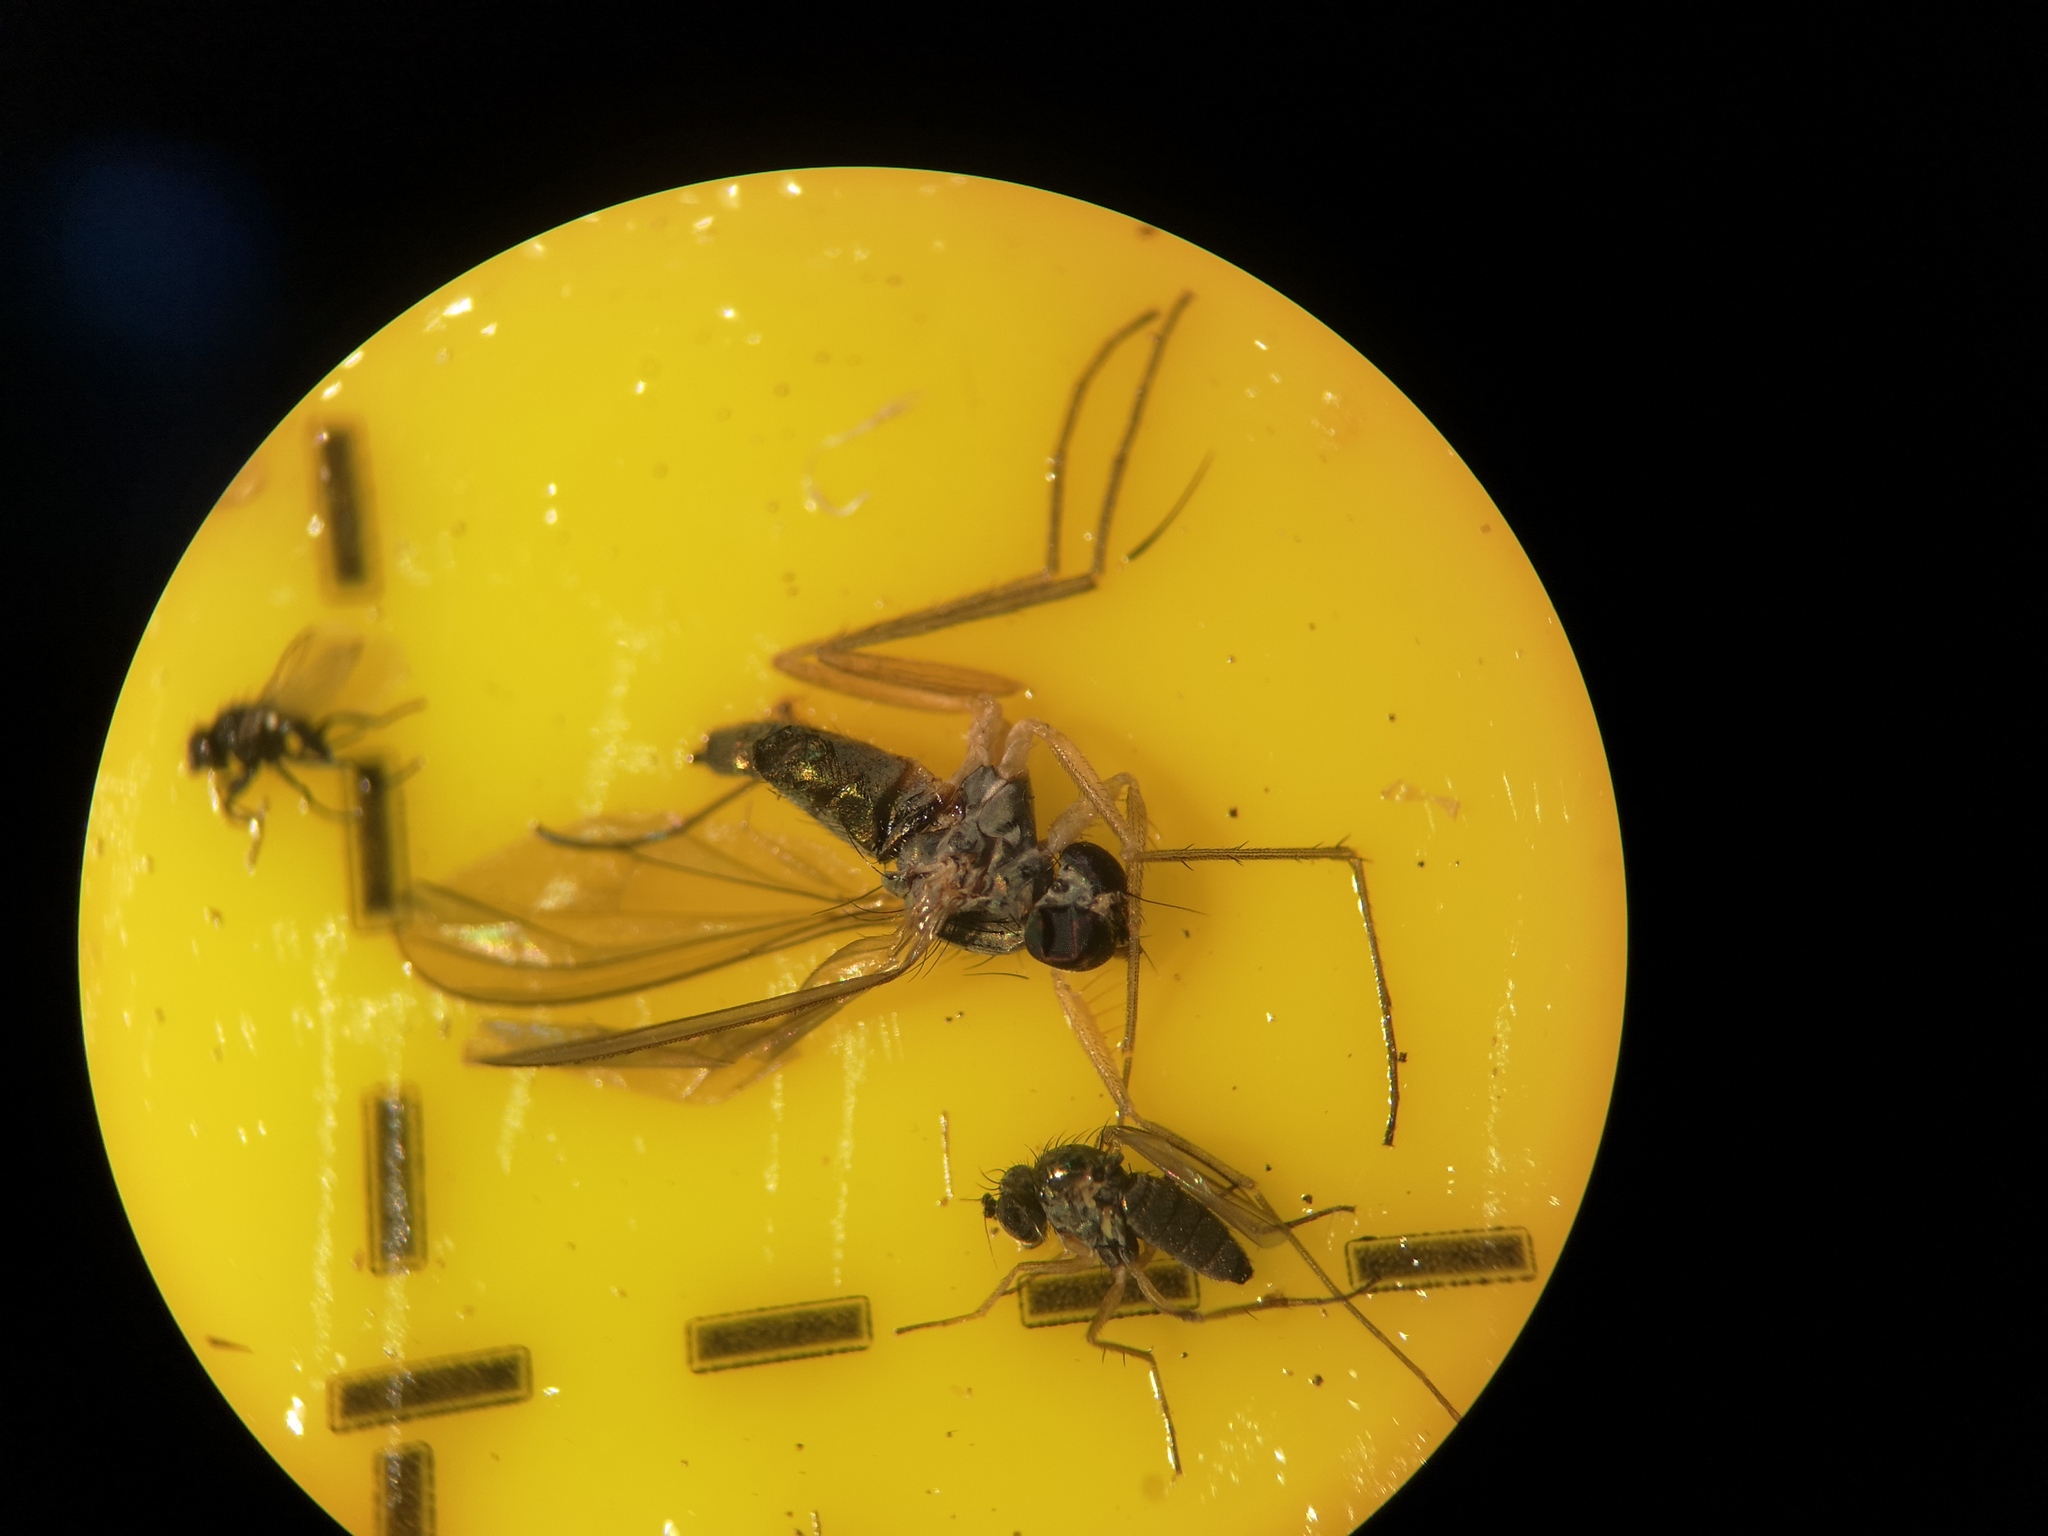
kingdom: Animalia
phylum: Arthropoda
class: Insecta
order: Diptera
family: Dolichopodidae
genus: Sciapus
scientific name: Sciapus platypterus
